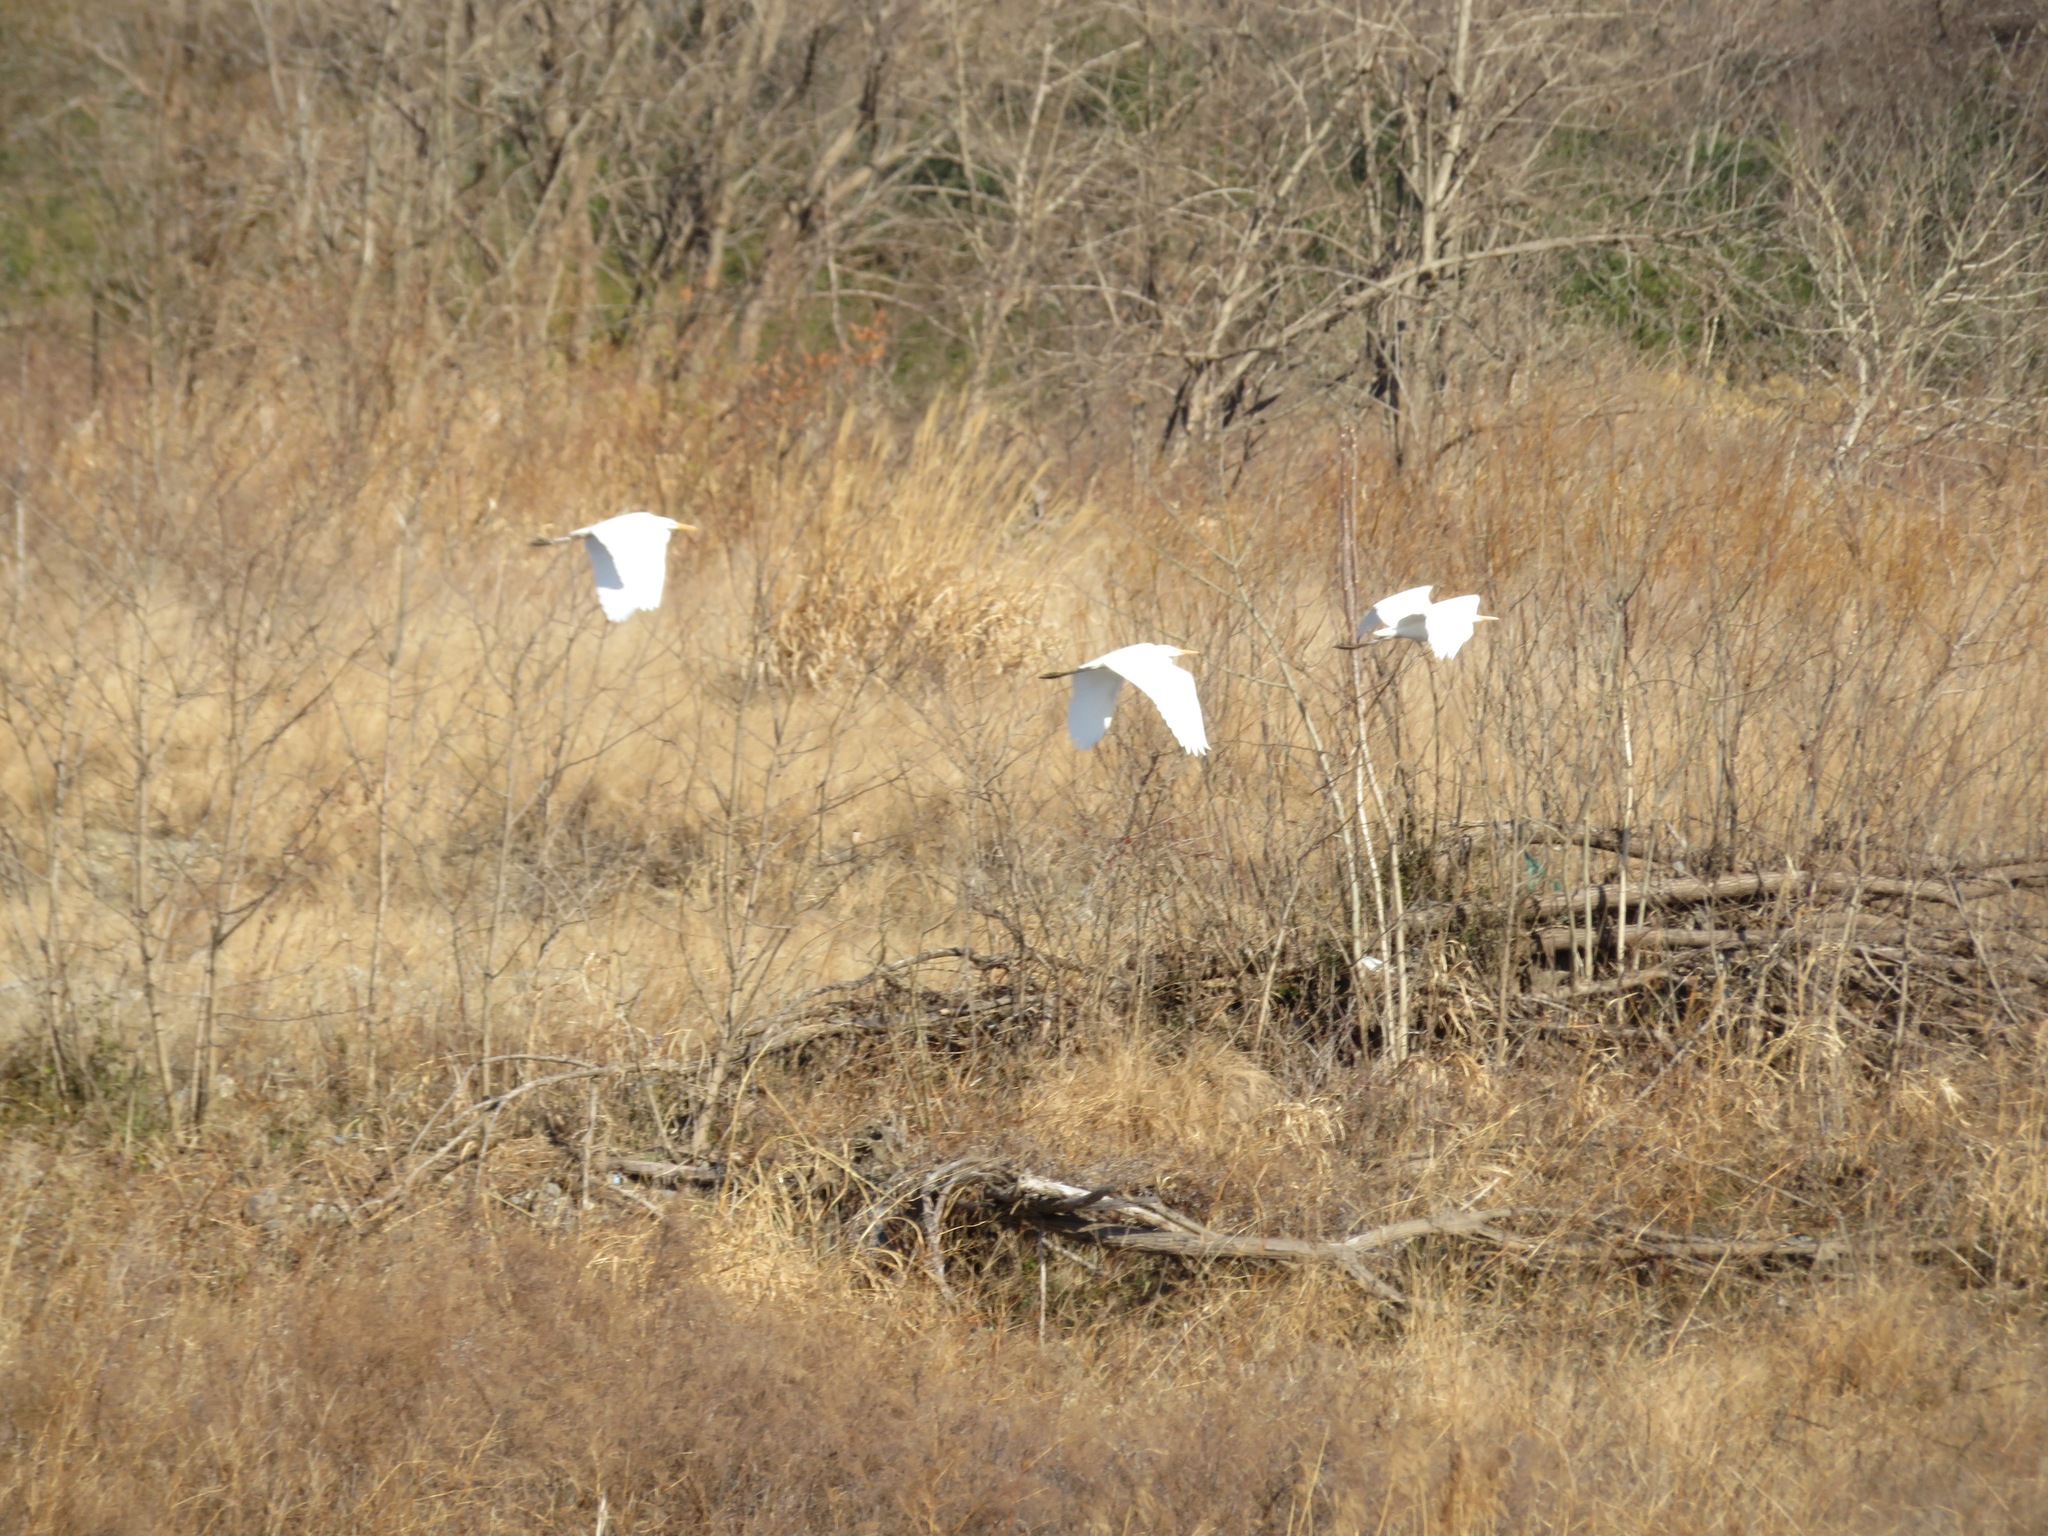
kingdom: Animalia
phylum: Chordata
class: Aves
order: Pelecaniformes
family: Ardeidae
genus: Ardea
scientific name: Ardea alba
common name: Great egret
